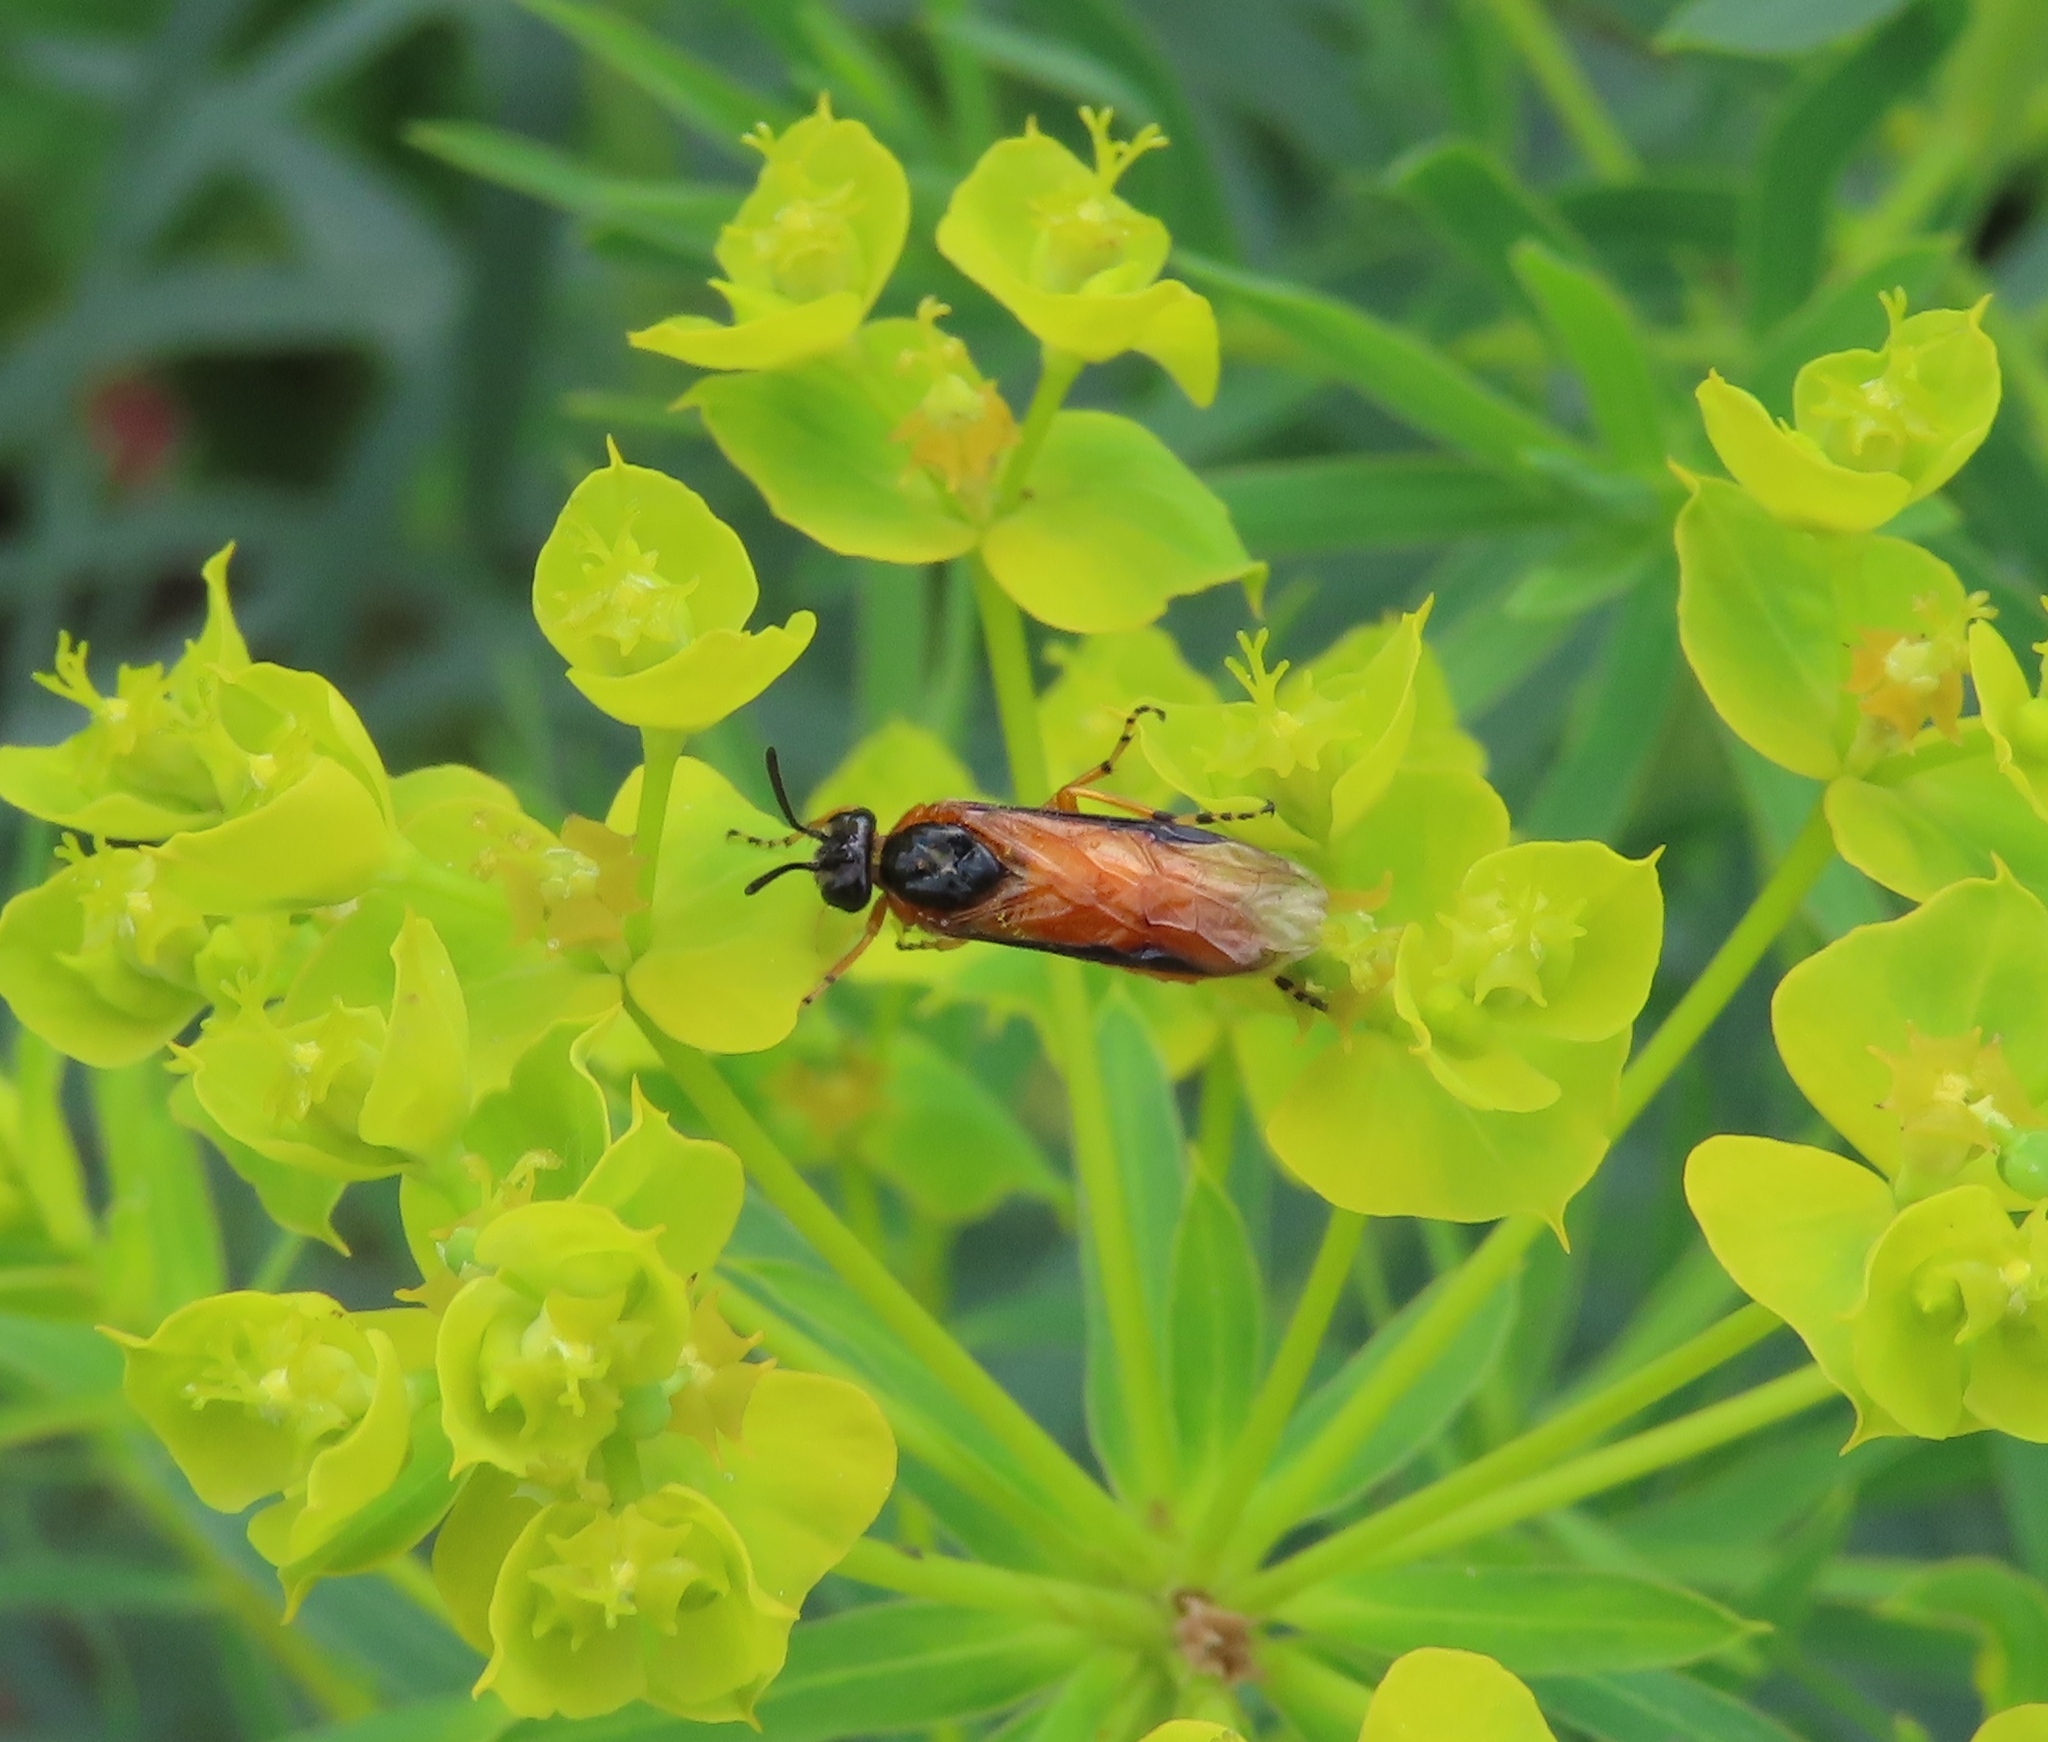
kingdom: Animalia
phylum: Arthropoda
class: Insecta
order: Hymenoptera
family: Argidae
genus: Arge
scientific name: Arge ochropus
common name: Argid sawfly
